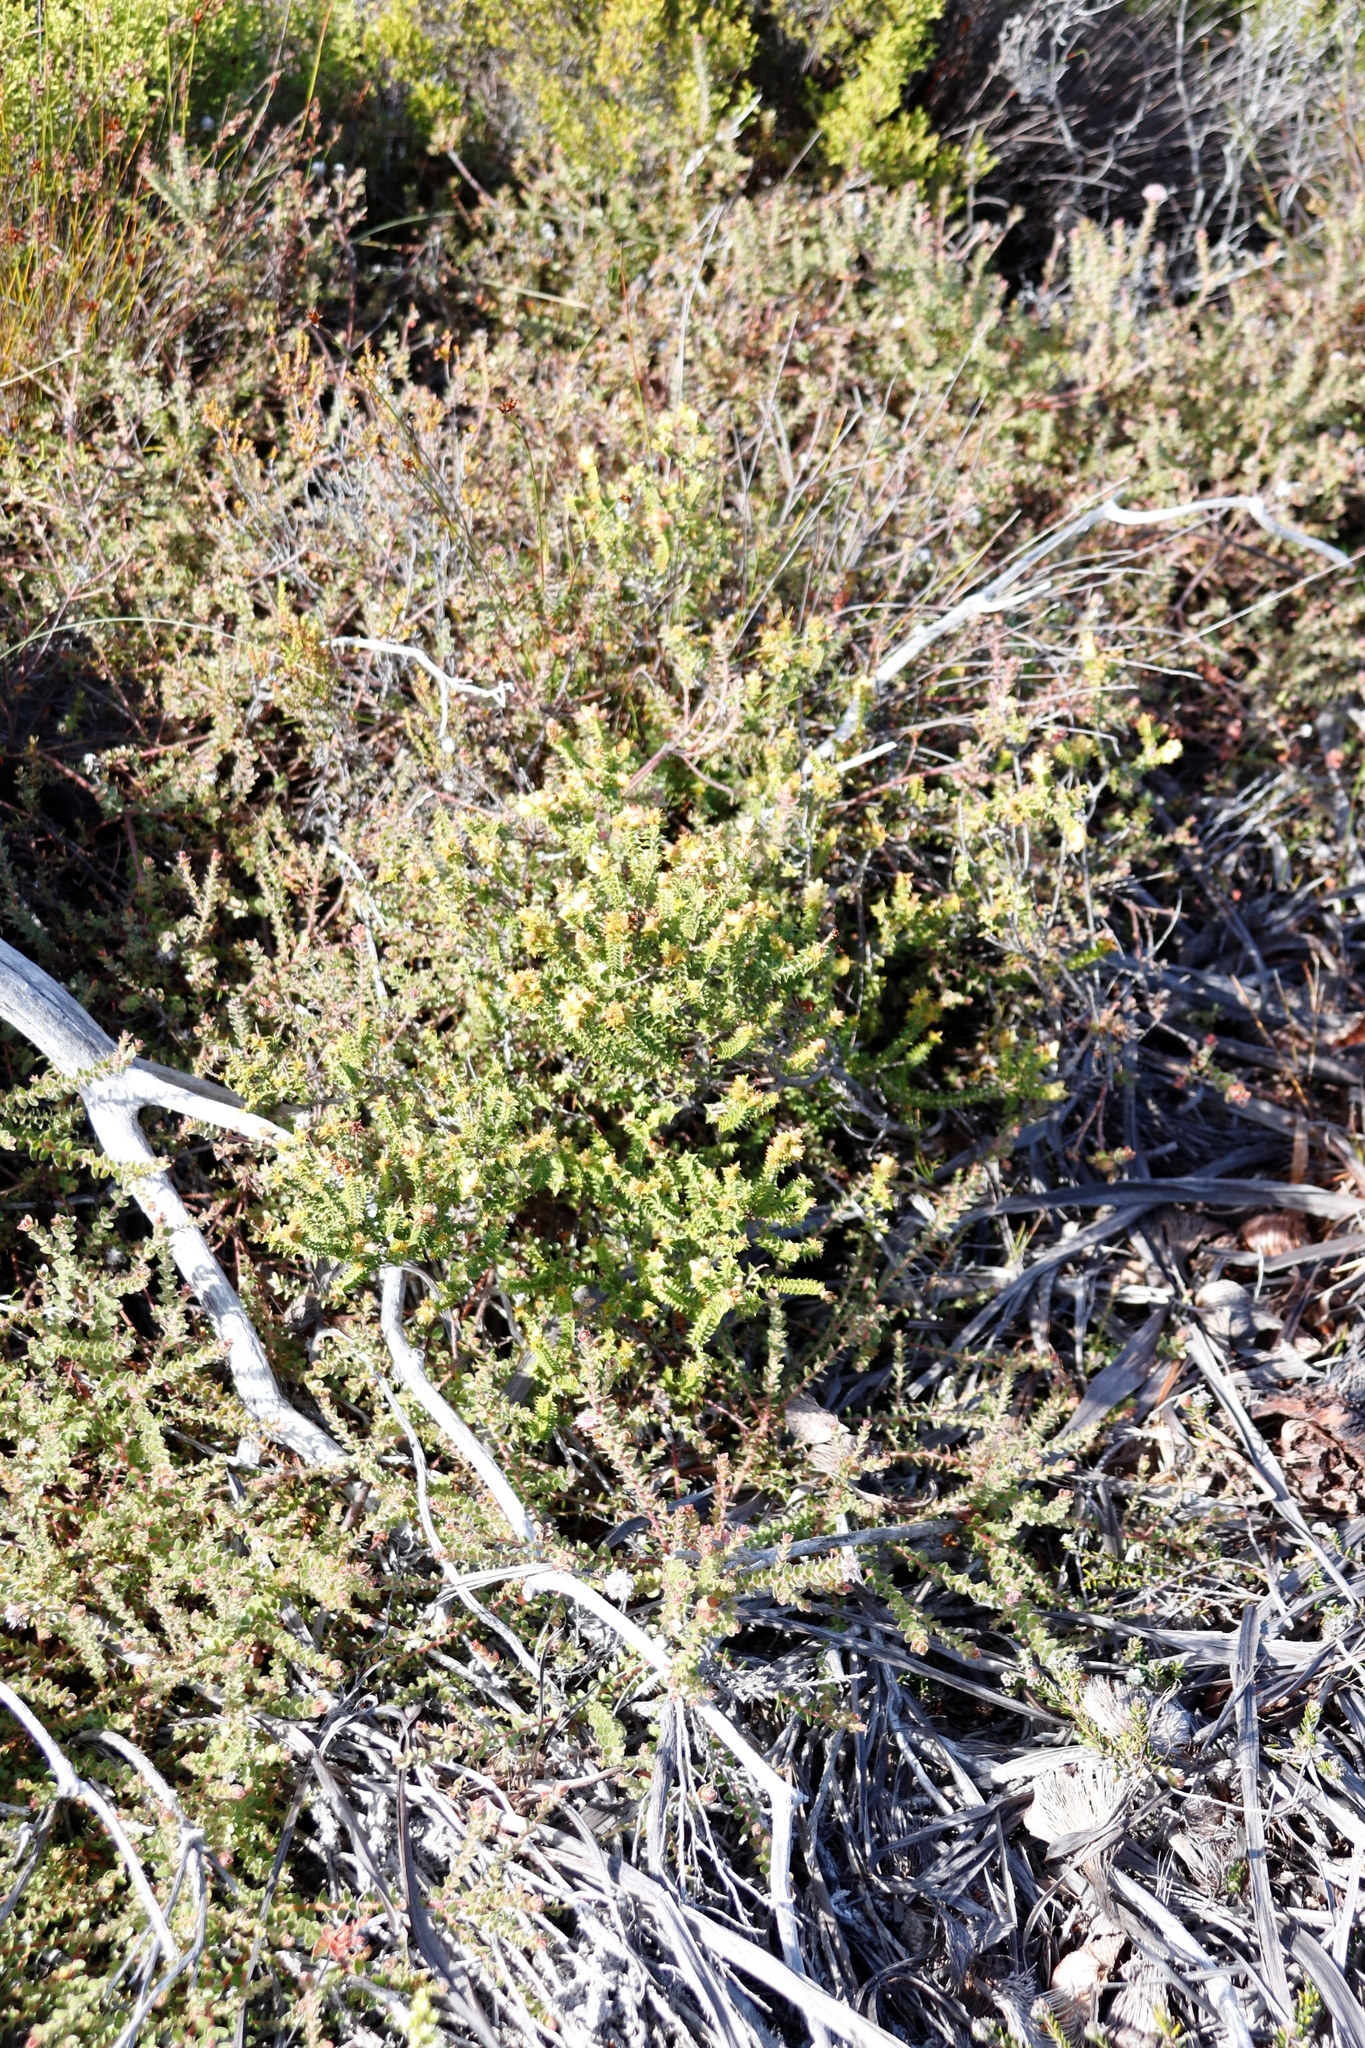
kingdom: Plantae
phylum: Tracheophyta
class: Magnoliopsida
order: Myrtales
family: Penaeaceae
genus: Penaea
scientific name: Penaea mucronata
